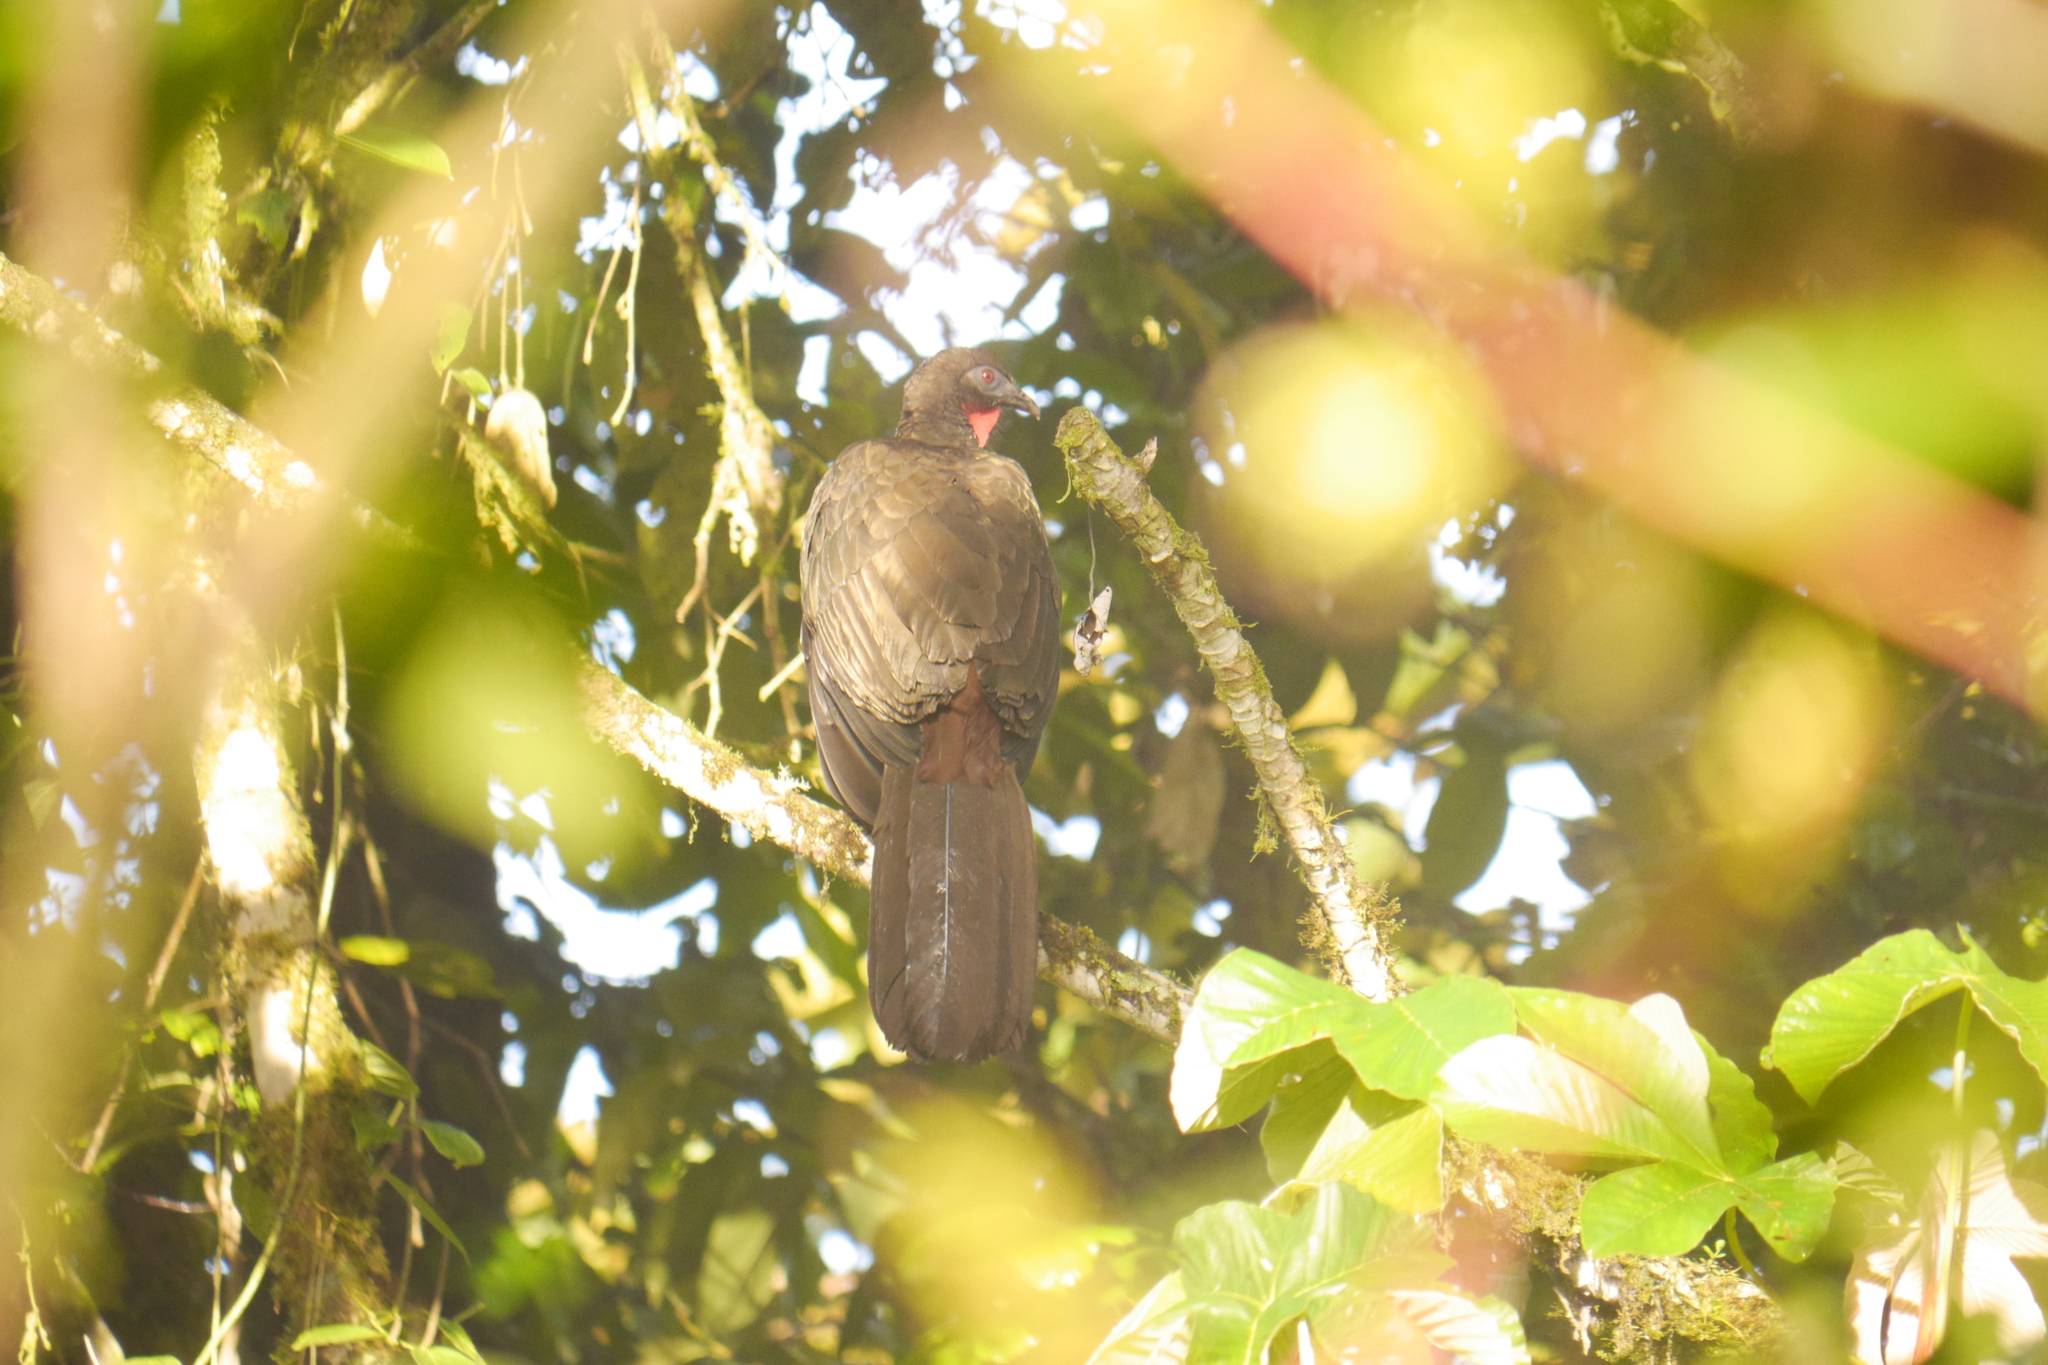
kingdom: Animalia
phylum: Chordata
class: Aves
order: Galliformes
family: Cracidae
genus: Penelope
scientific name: Penelope purpurascens
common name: Crested guan
